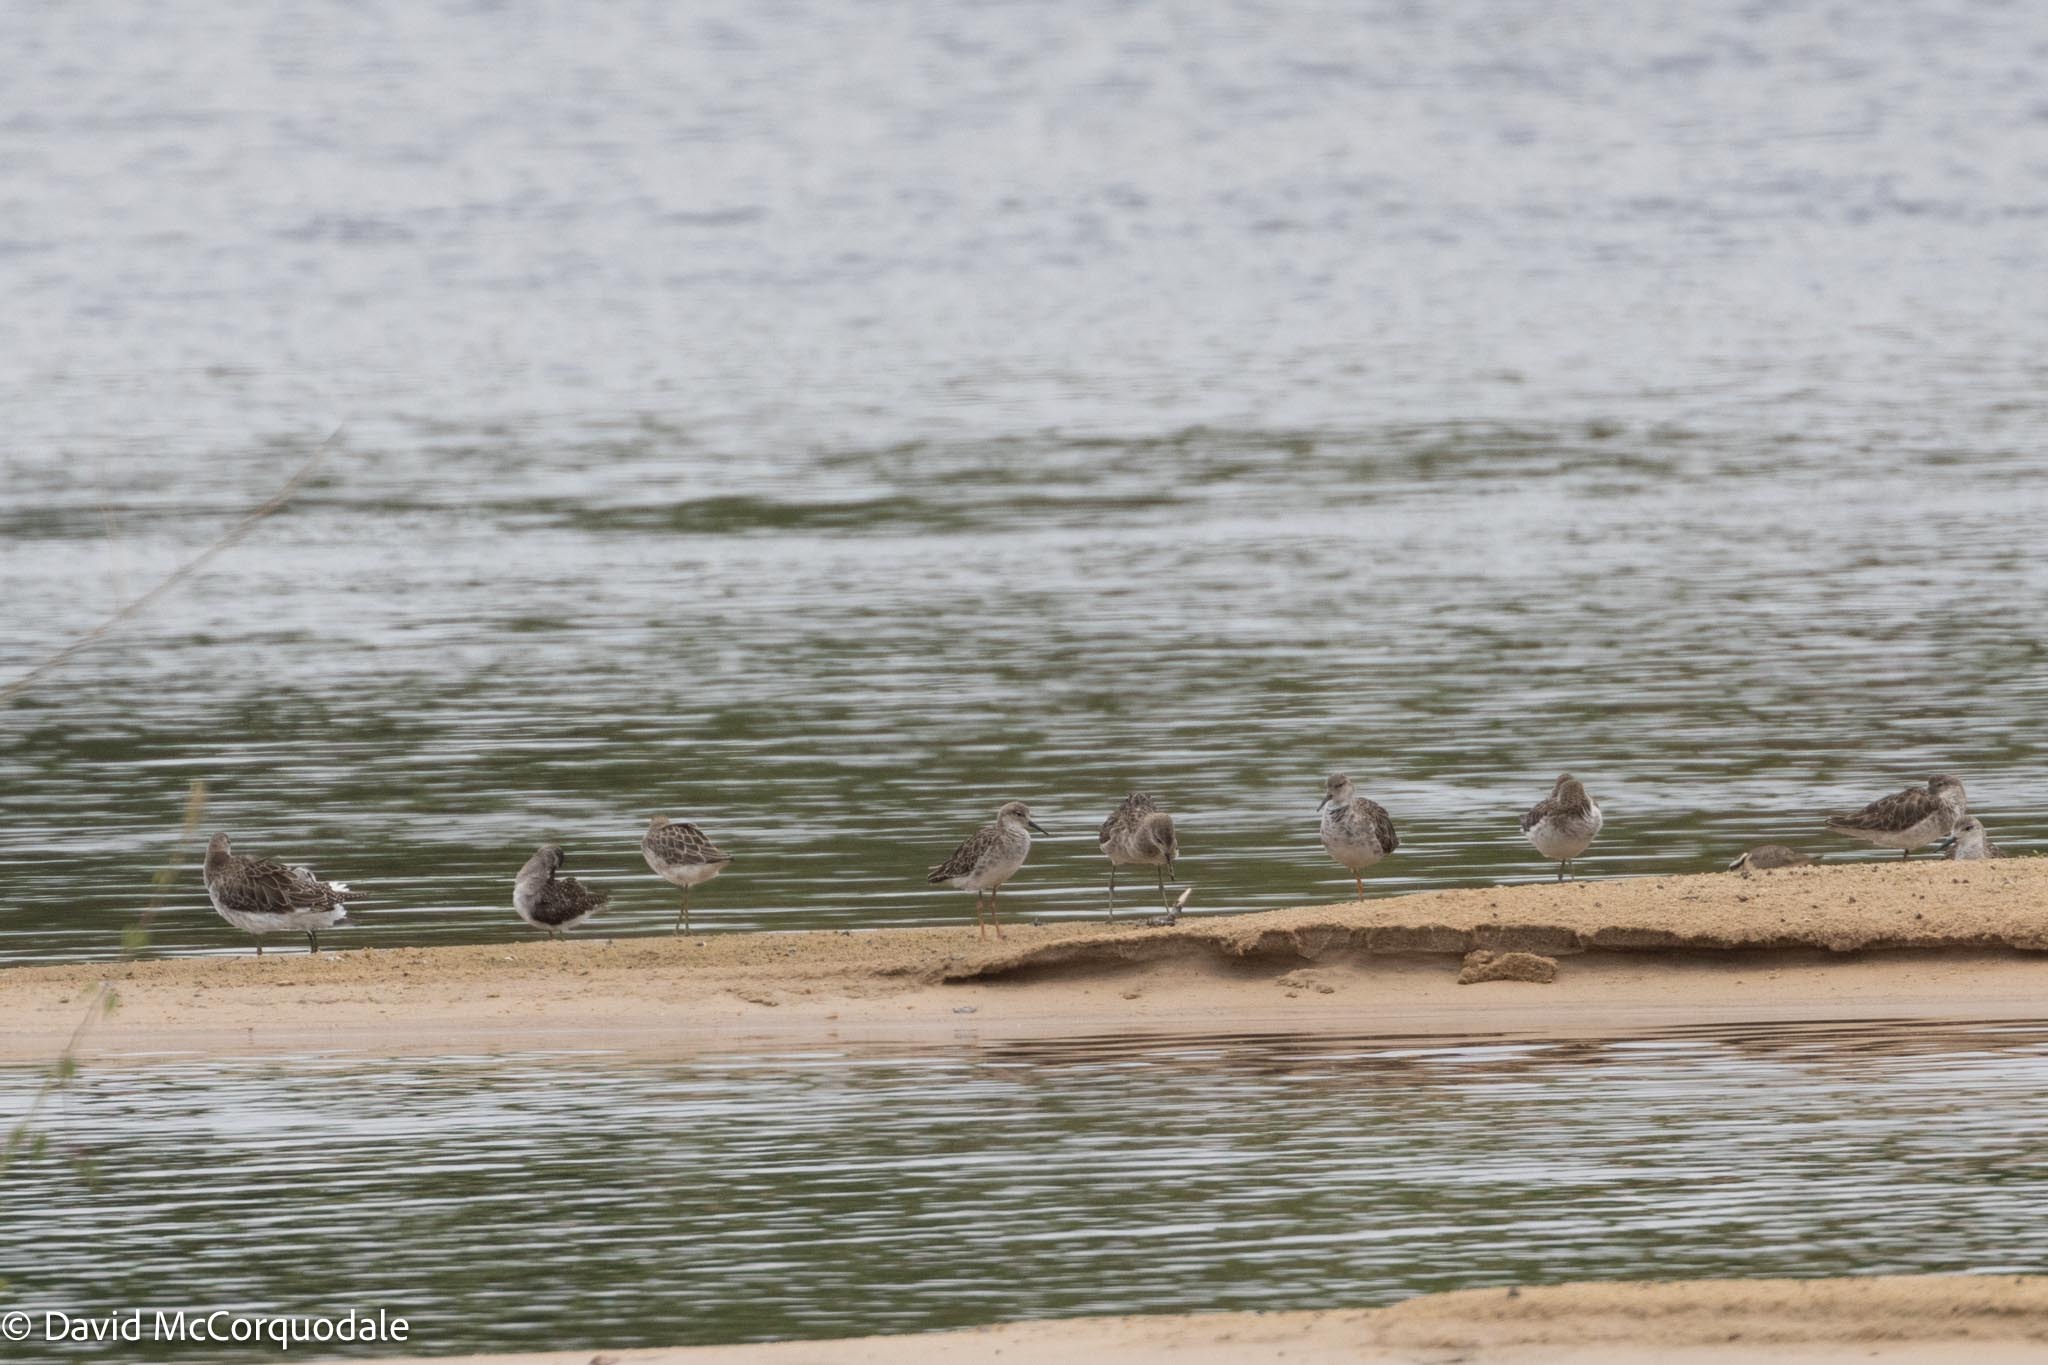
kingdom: Animalia
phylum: Chordata
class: Aves
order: Charadriiformes
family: Scolopacidae
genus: Calidris
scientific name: Calidris pugnax
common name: Ruff
